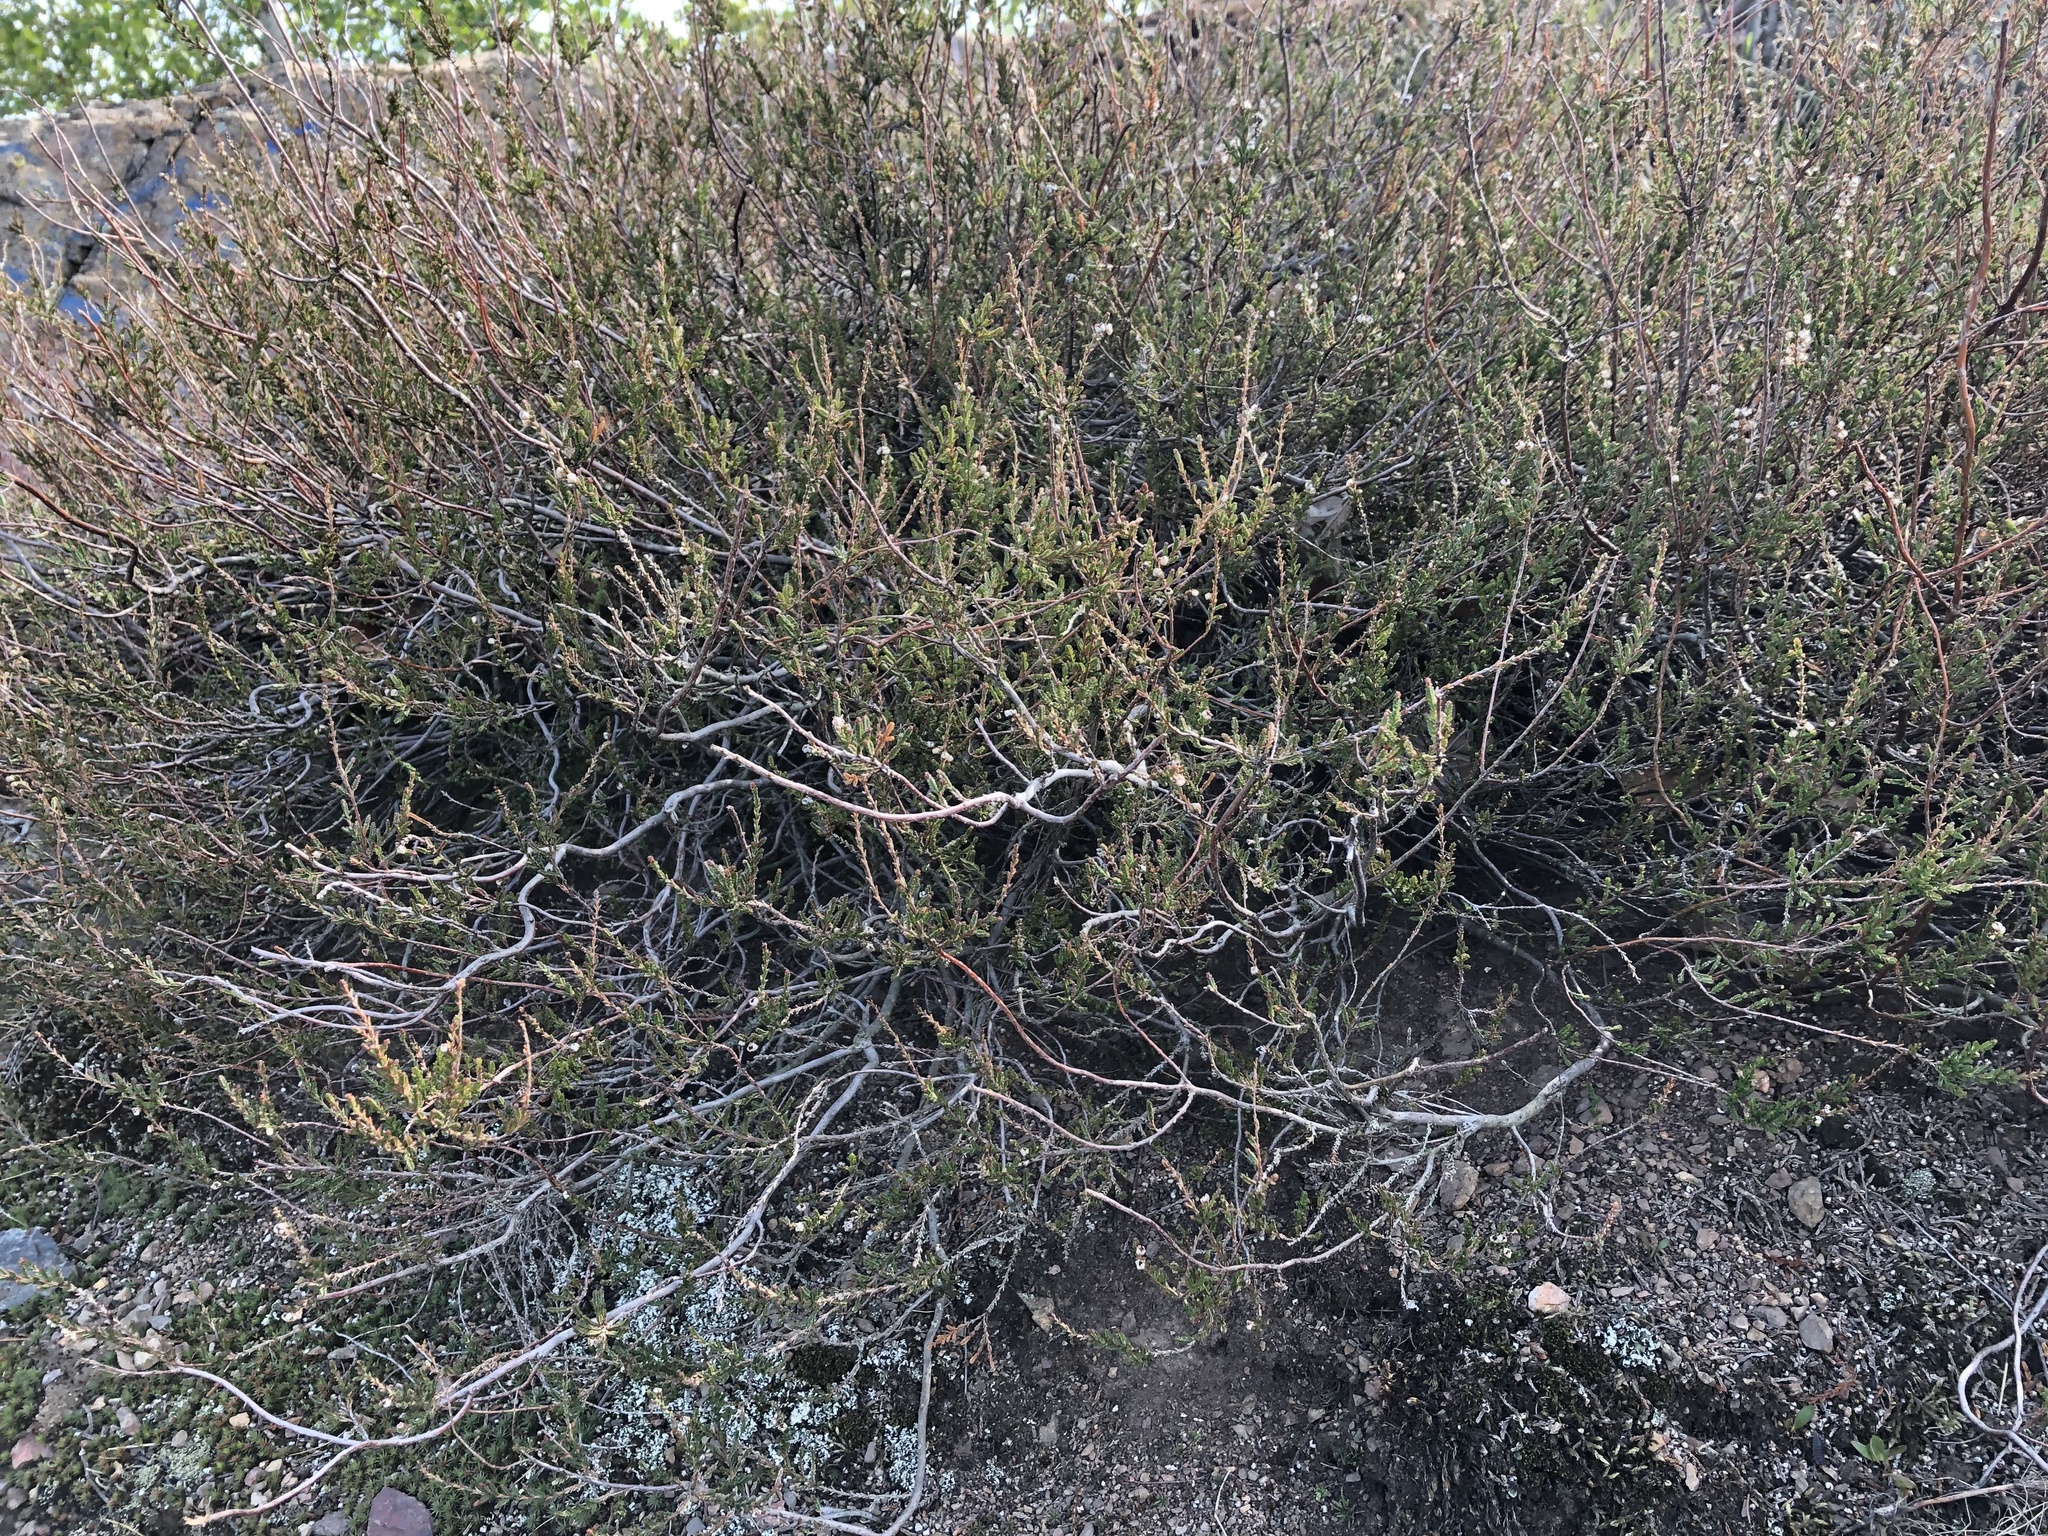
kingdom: Plantae
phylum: Tracheophyta
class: Magnoliopsida
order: Ericales
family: Ericaceae
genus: Calluna
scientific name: Calluna vulgaris
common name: Heather
